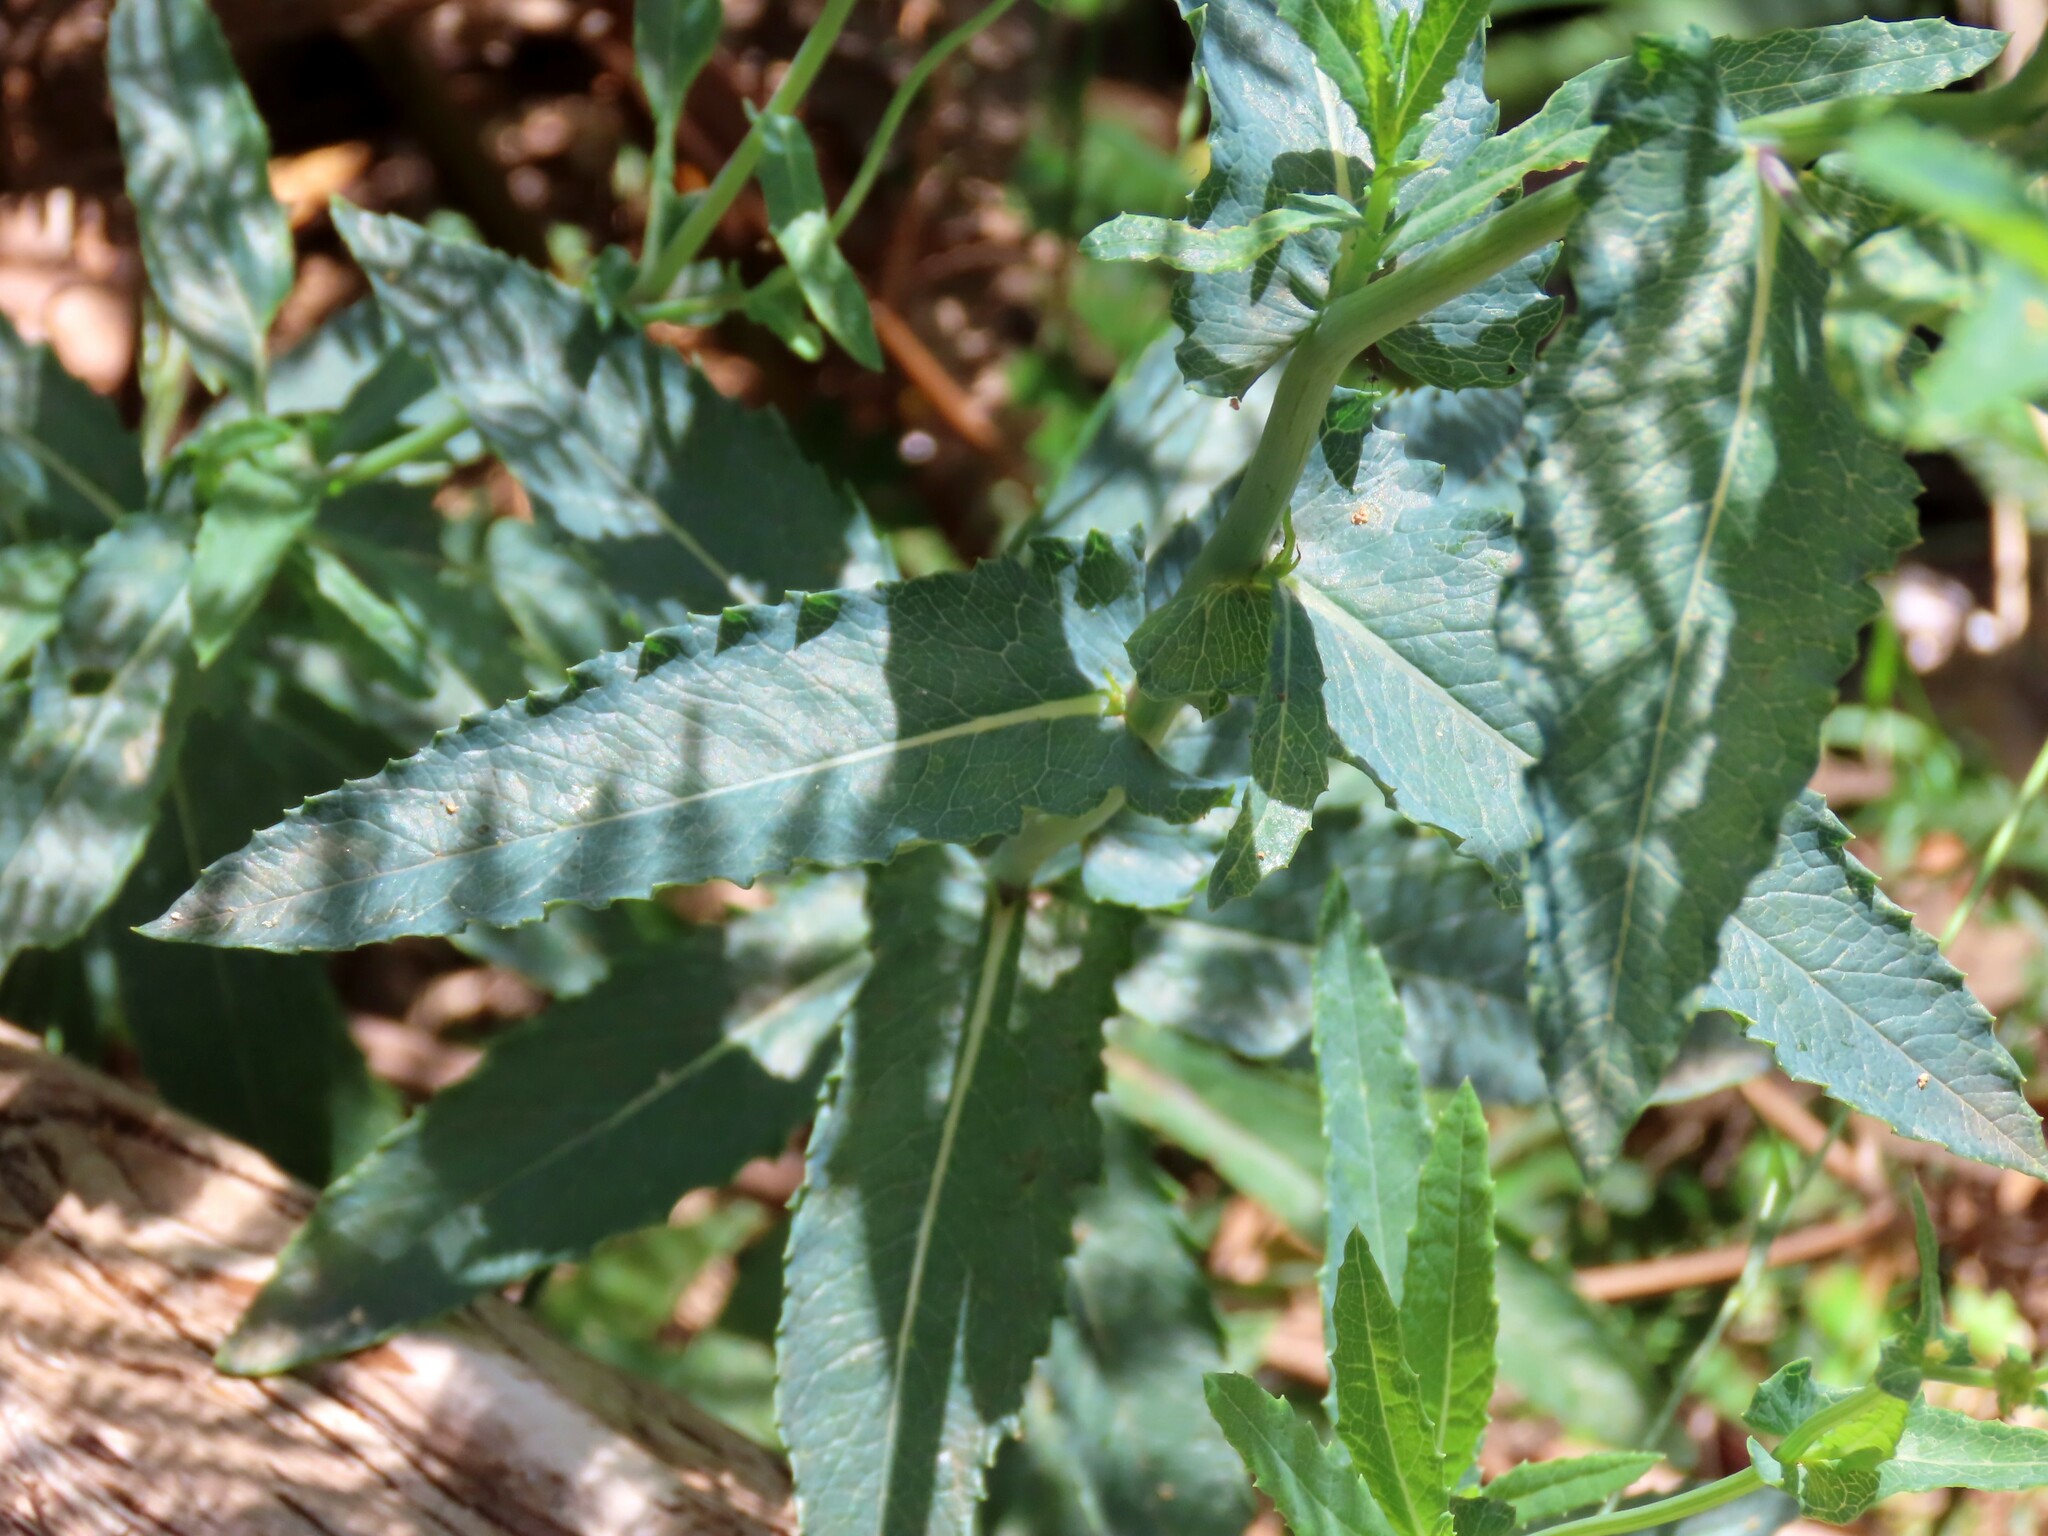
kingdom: Plantae
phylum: Tracheophyta
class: Magnoliopsida
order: Asterales
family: Asteraceae
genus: Senecio
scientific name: Senecio odoratus
